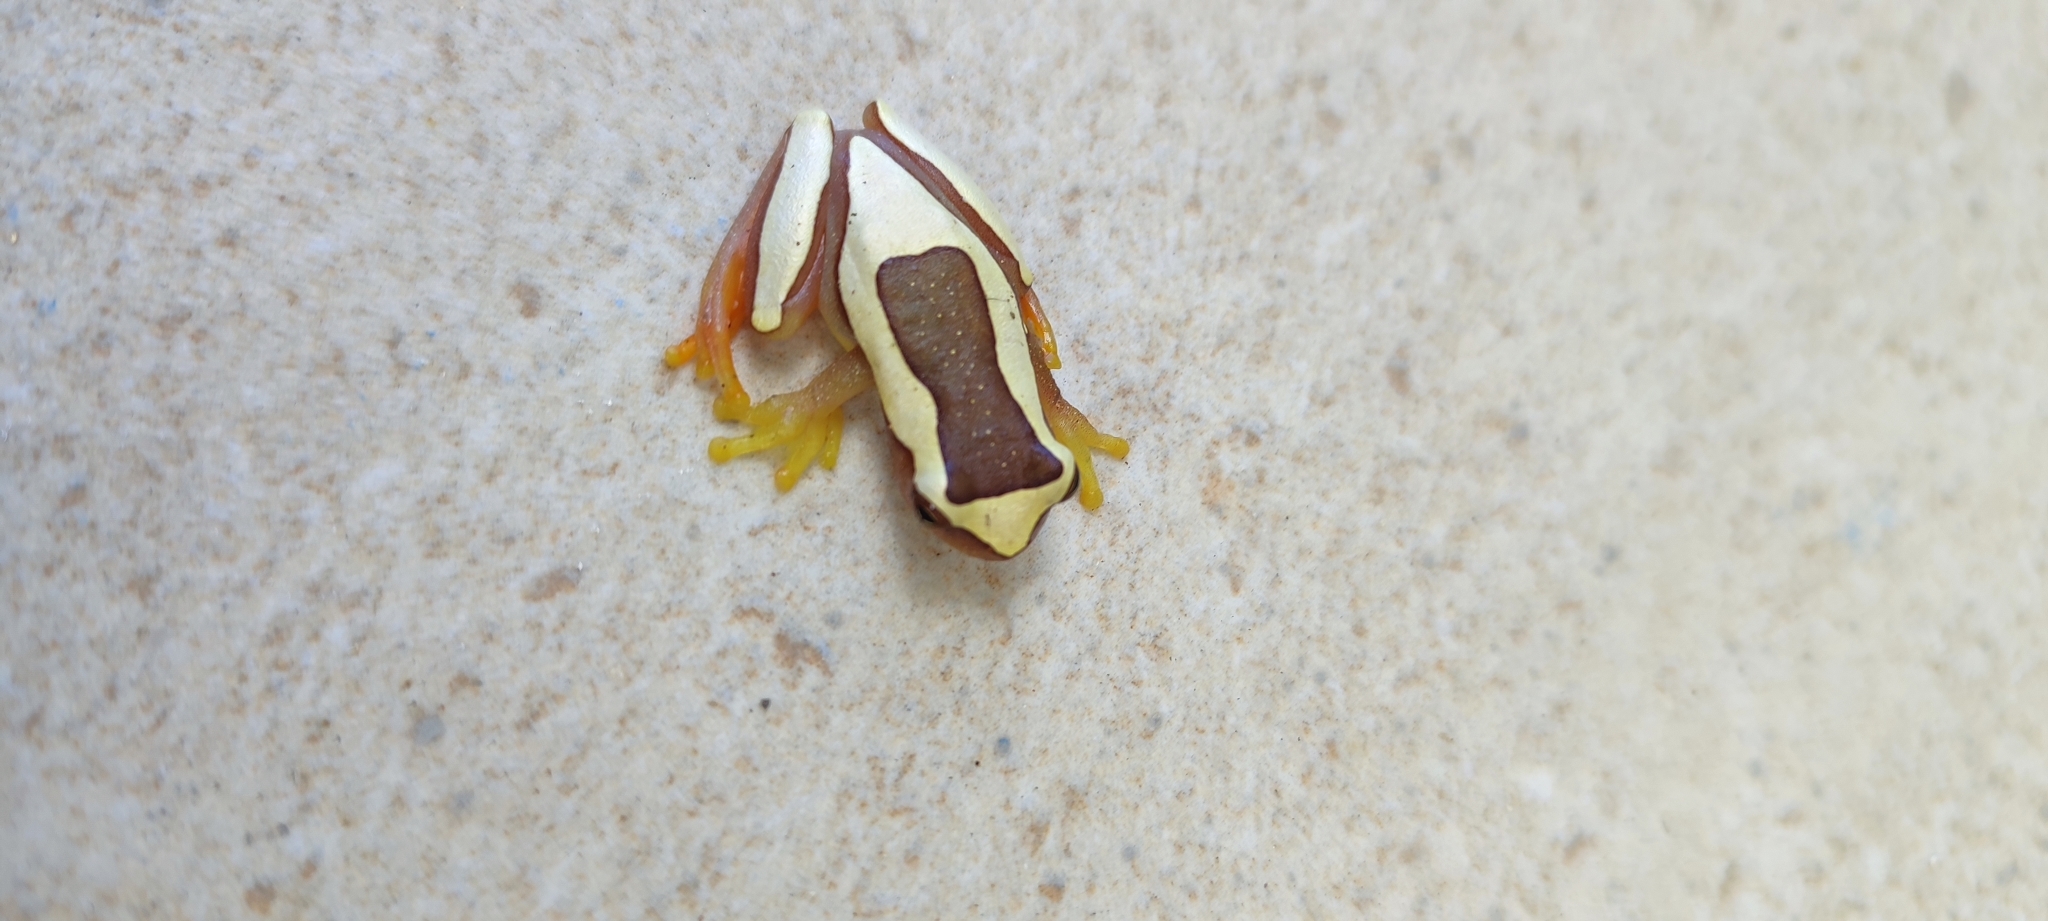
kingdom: Animalia
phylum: Chordata
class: Amphibia
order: Anura
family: Hylidae
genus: Dendropsophus
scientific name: Dendropsophus elegans
